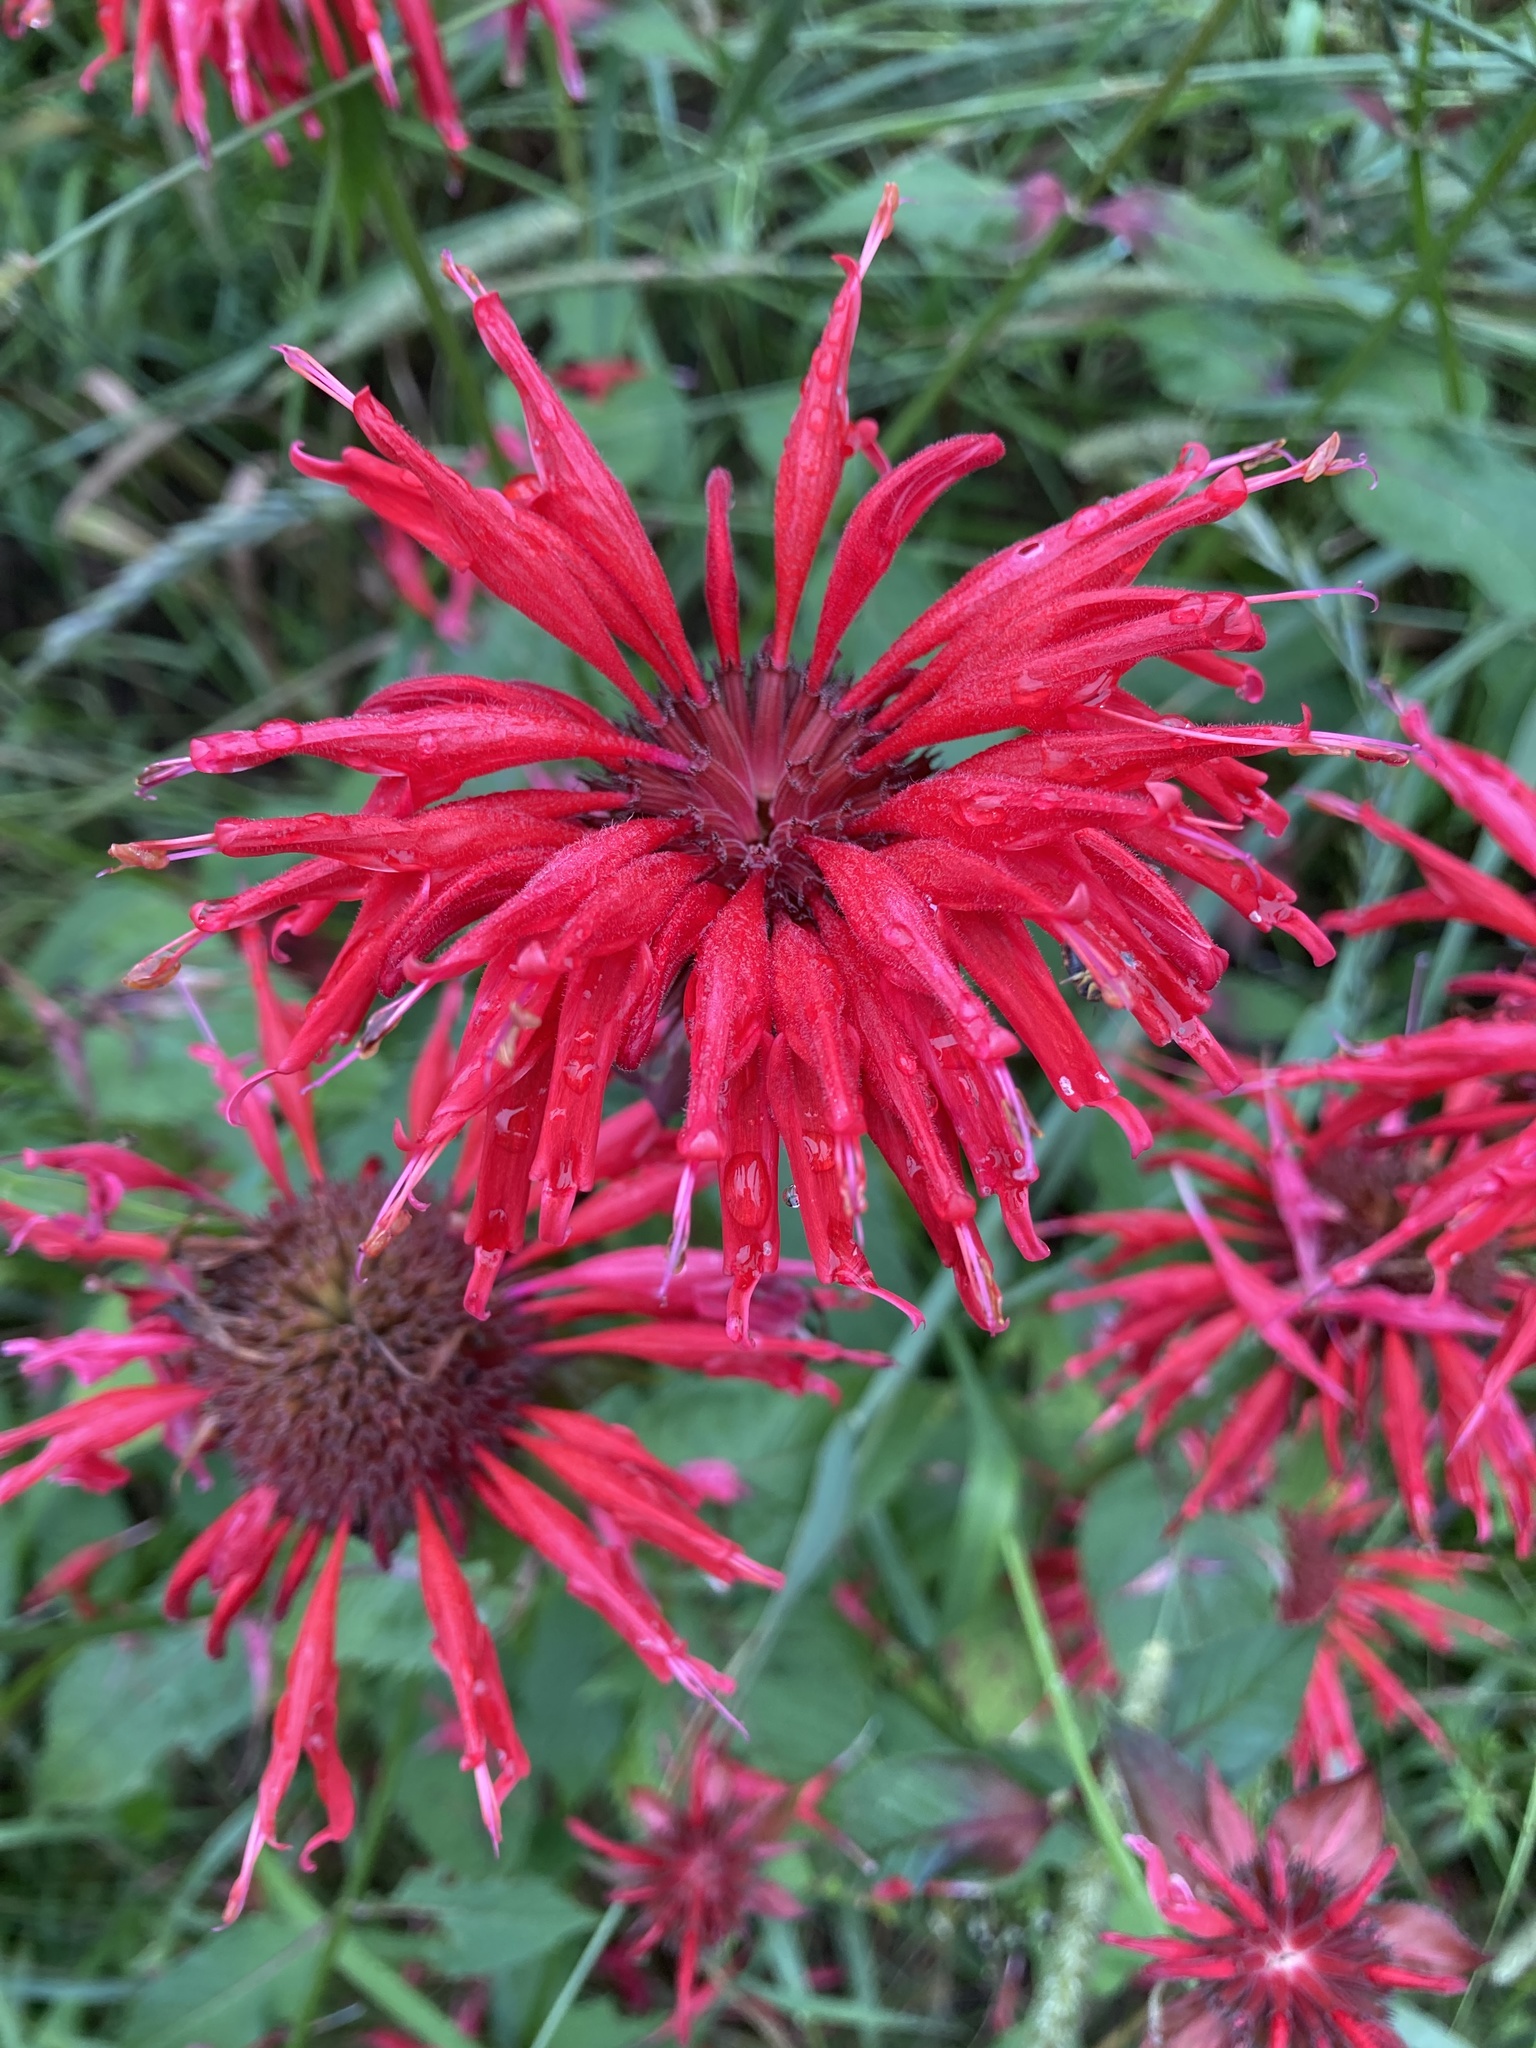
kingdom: Plantae
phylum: Tracheophyta
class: Magnoliopsida
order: Lamiales
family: Lamiaceae
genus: Monarda
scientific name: Monarda didyma
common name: Beebalm
